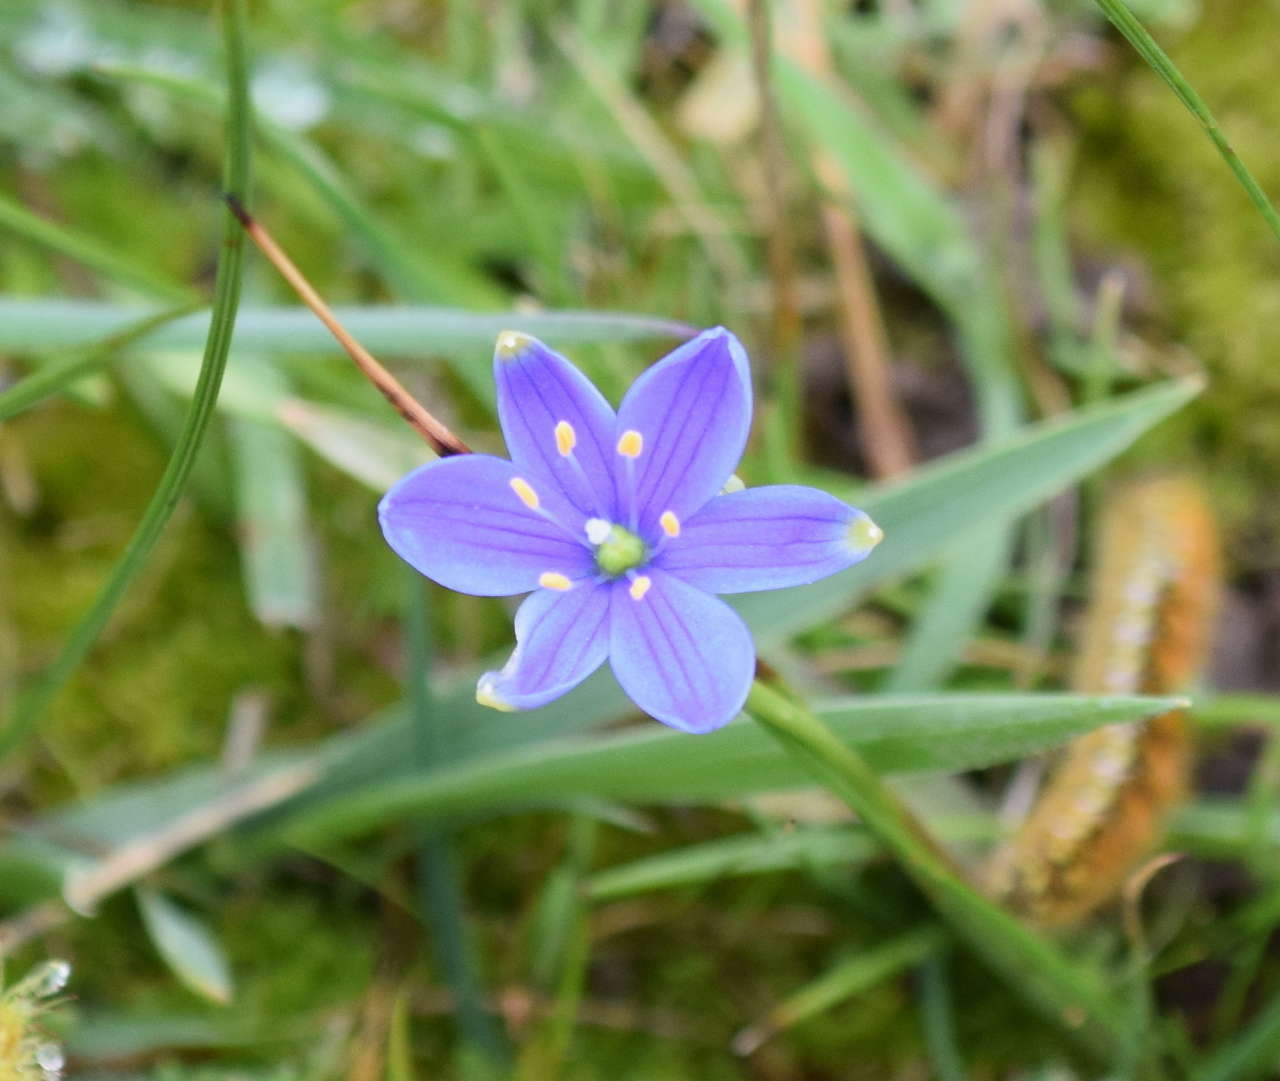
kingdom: Plantae
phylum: Tracheophyta
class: Liliopsida
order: Asparagales
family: Asphodelaceae
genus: Chamaescilla
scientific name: Chamaescilla corymbosa
